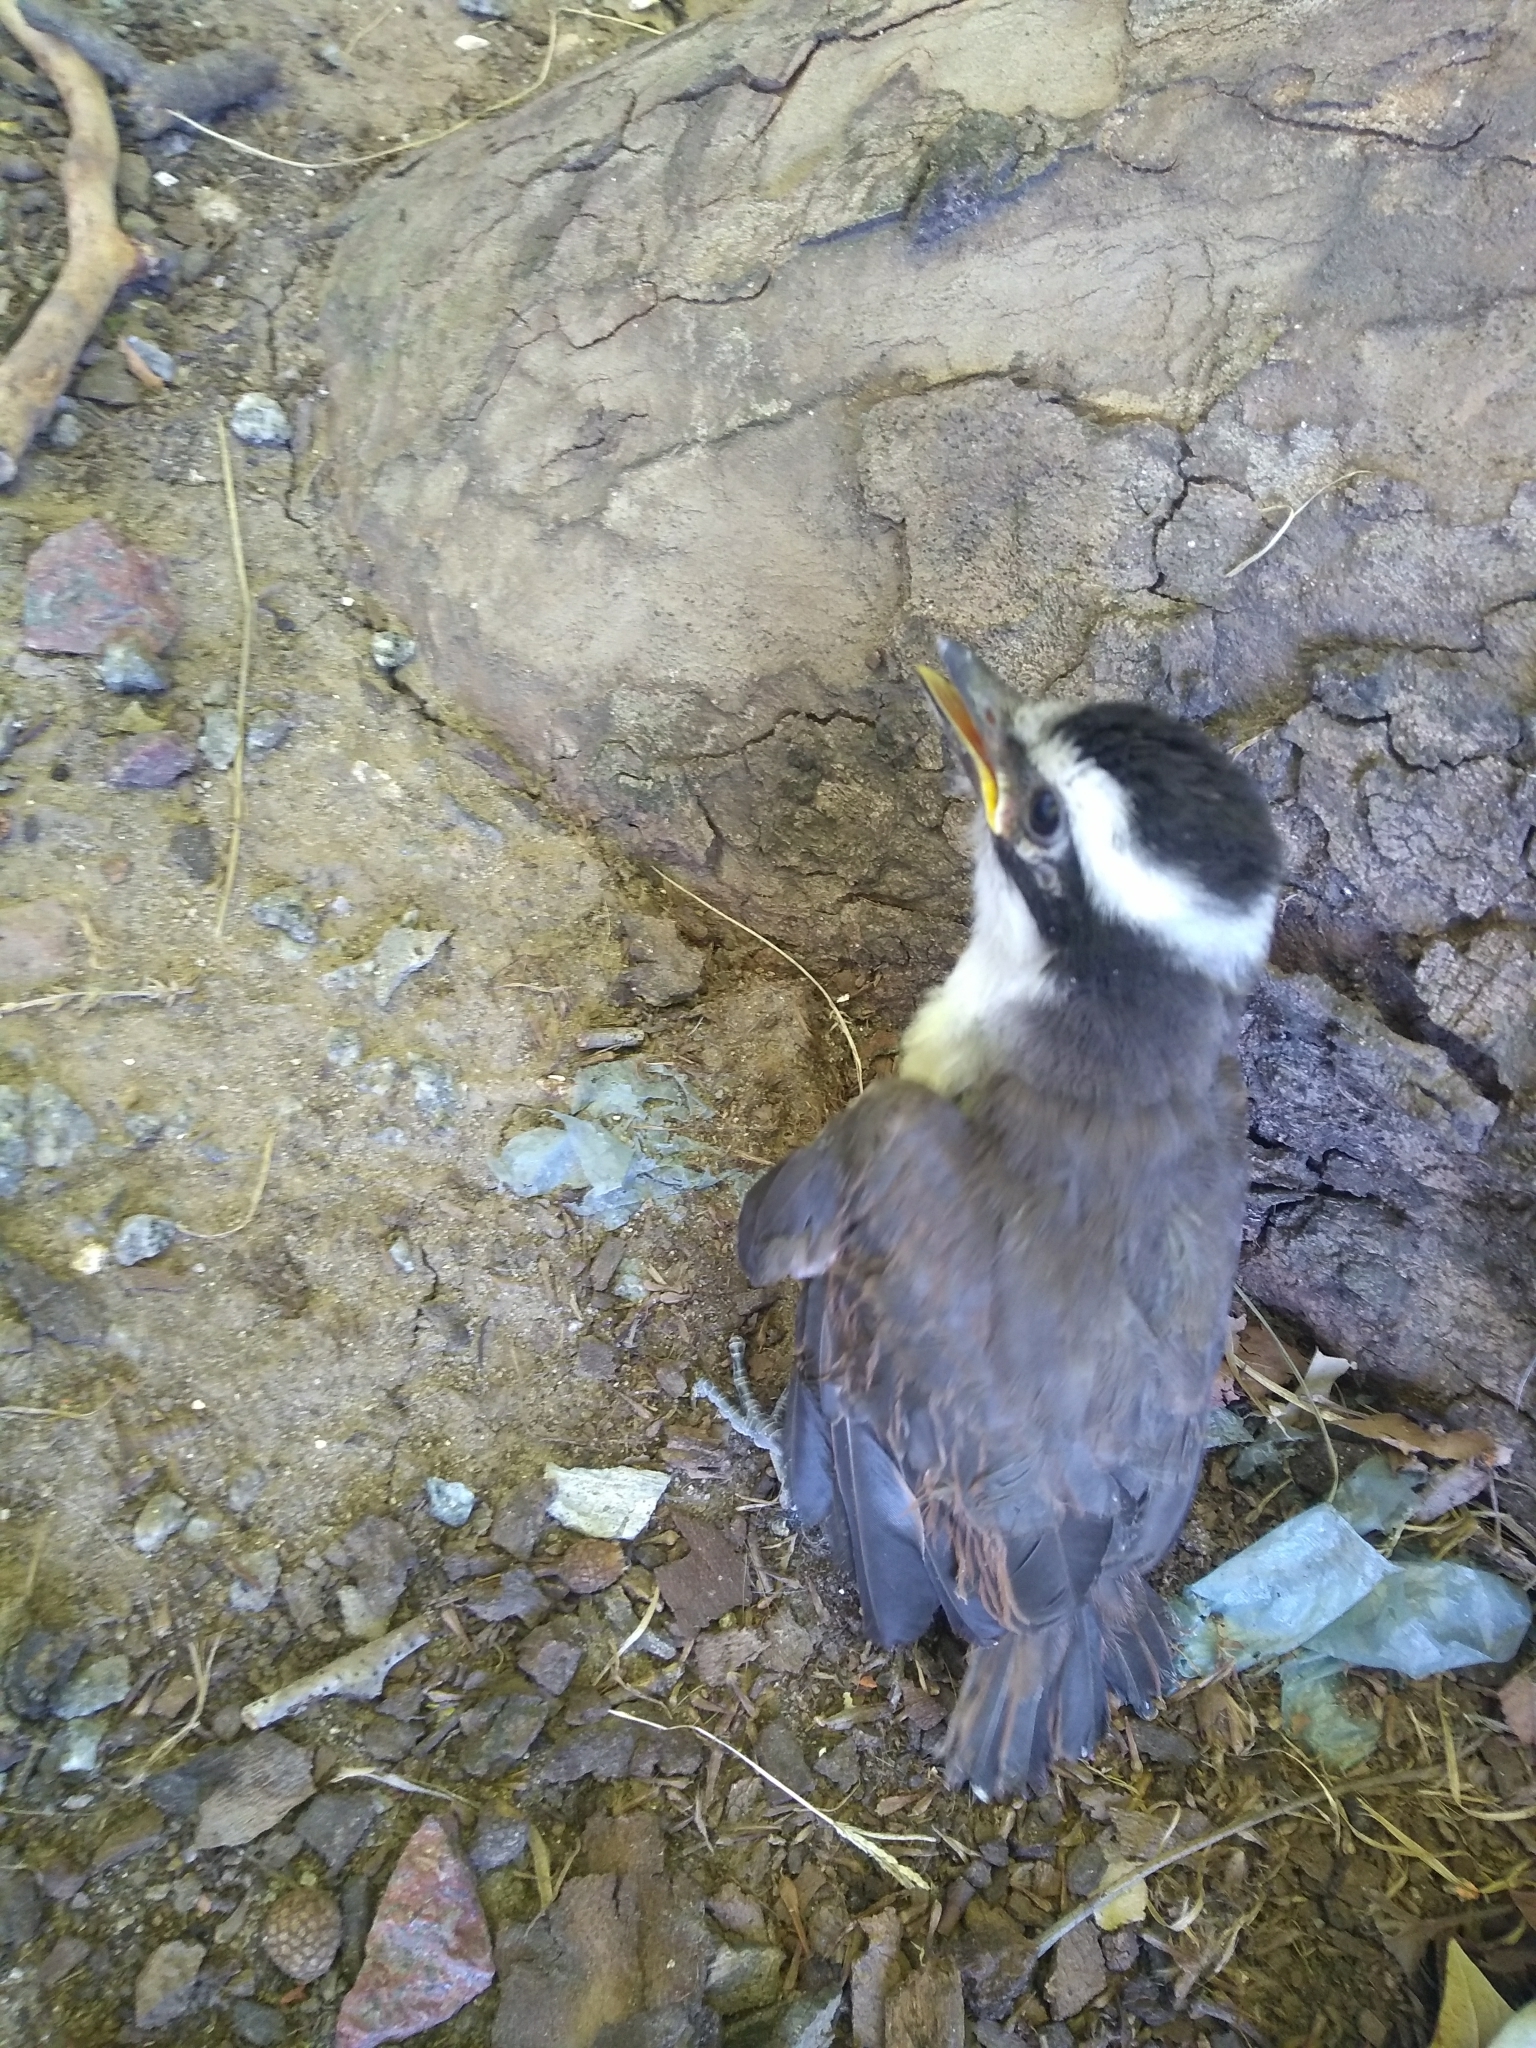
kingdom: Animalia
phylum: Chordata
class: Aves
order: Passeriformes
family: Tyrannidae
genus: Pitangus
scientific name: Pitangus sulphuratus
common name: Great kiskadee
